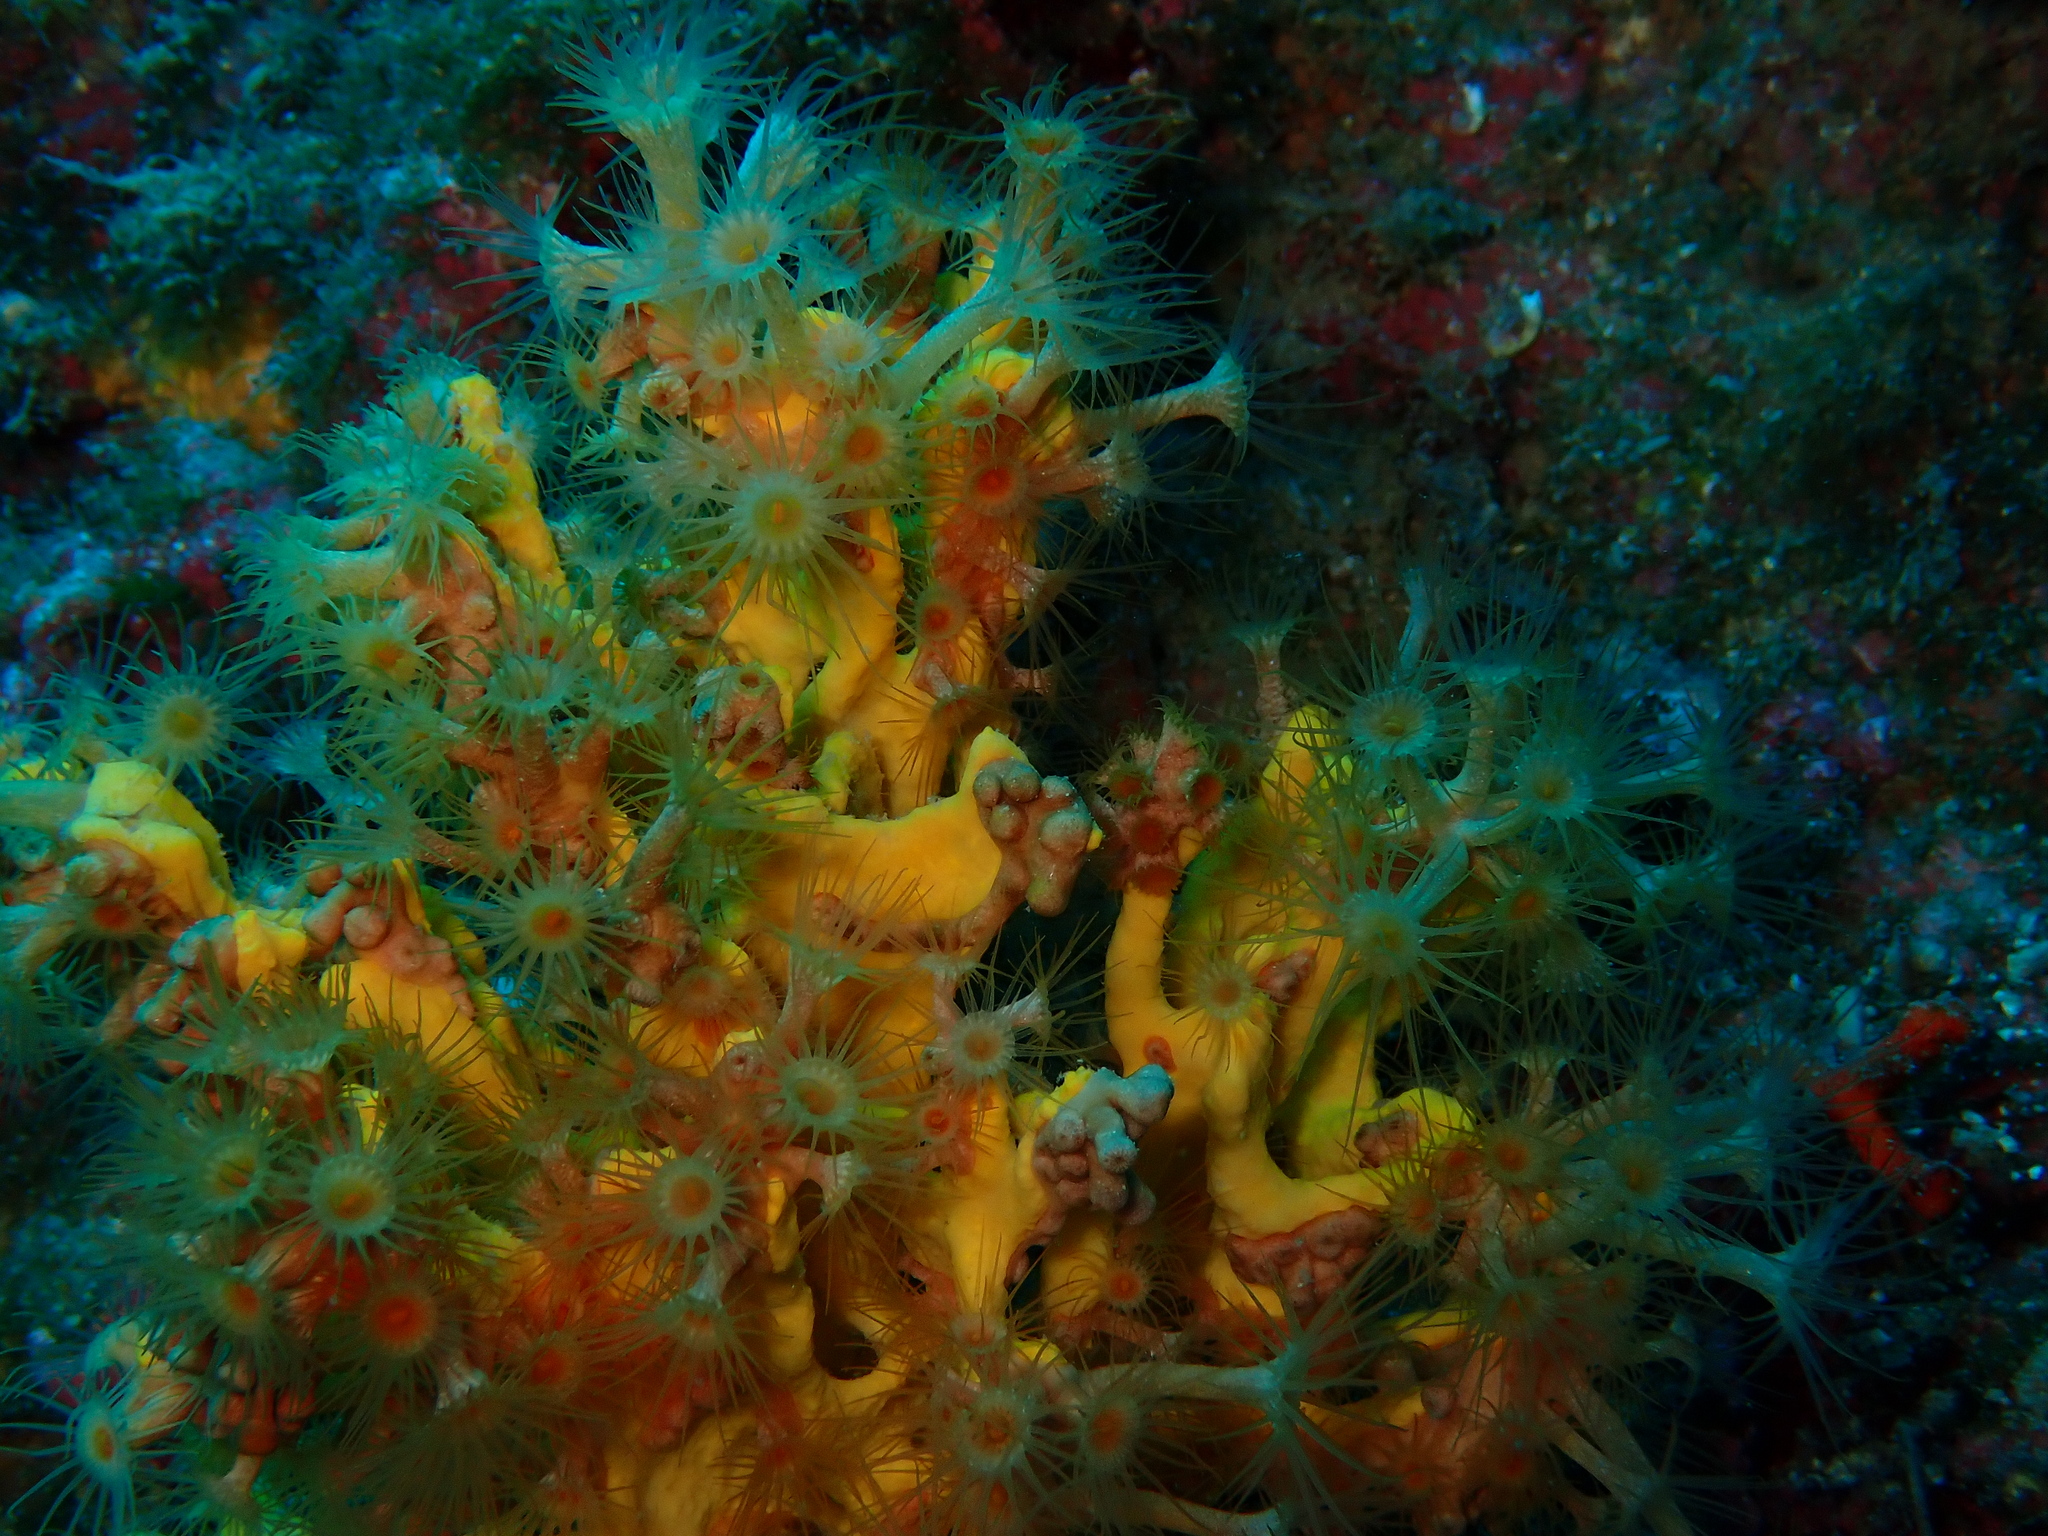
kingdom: Animalia
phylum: Cnidaria
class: Anthozoa
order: Zoantharia
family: Parazoanthidae
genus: Parazoanthus
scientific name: Parazoanthus axinellae
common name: Yellow cluster anemone
